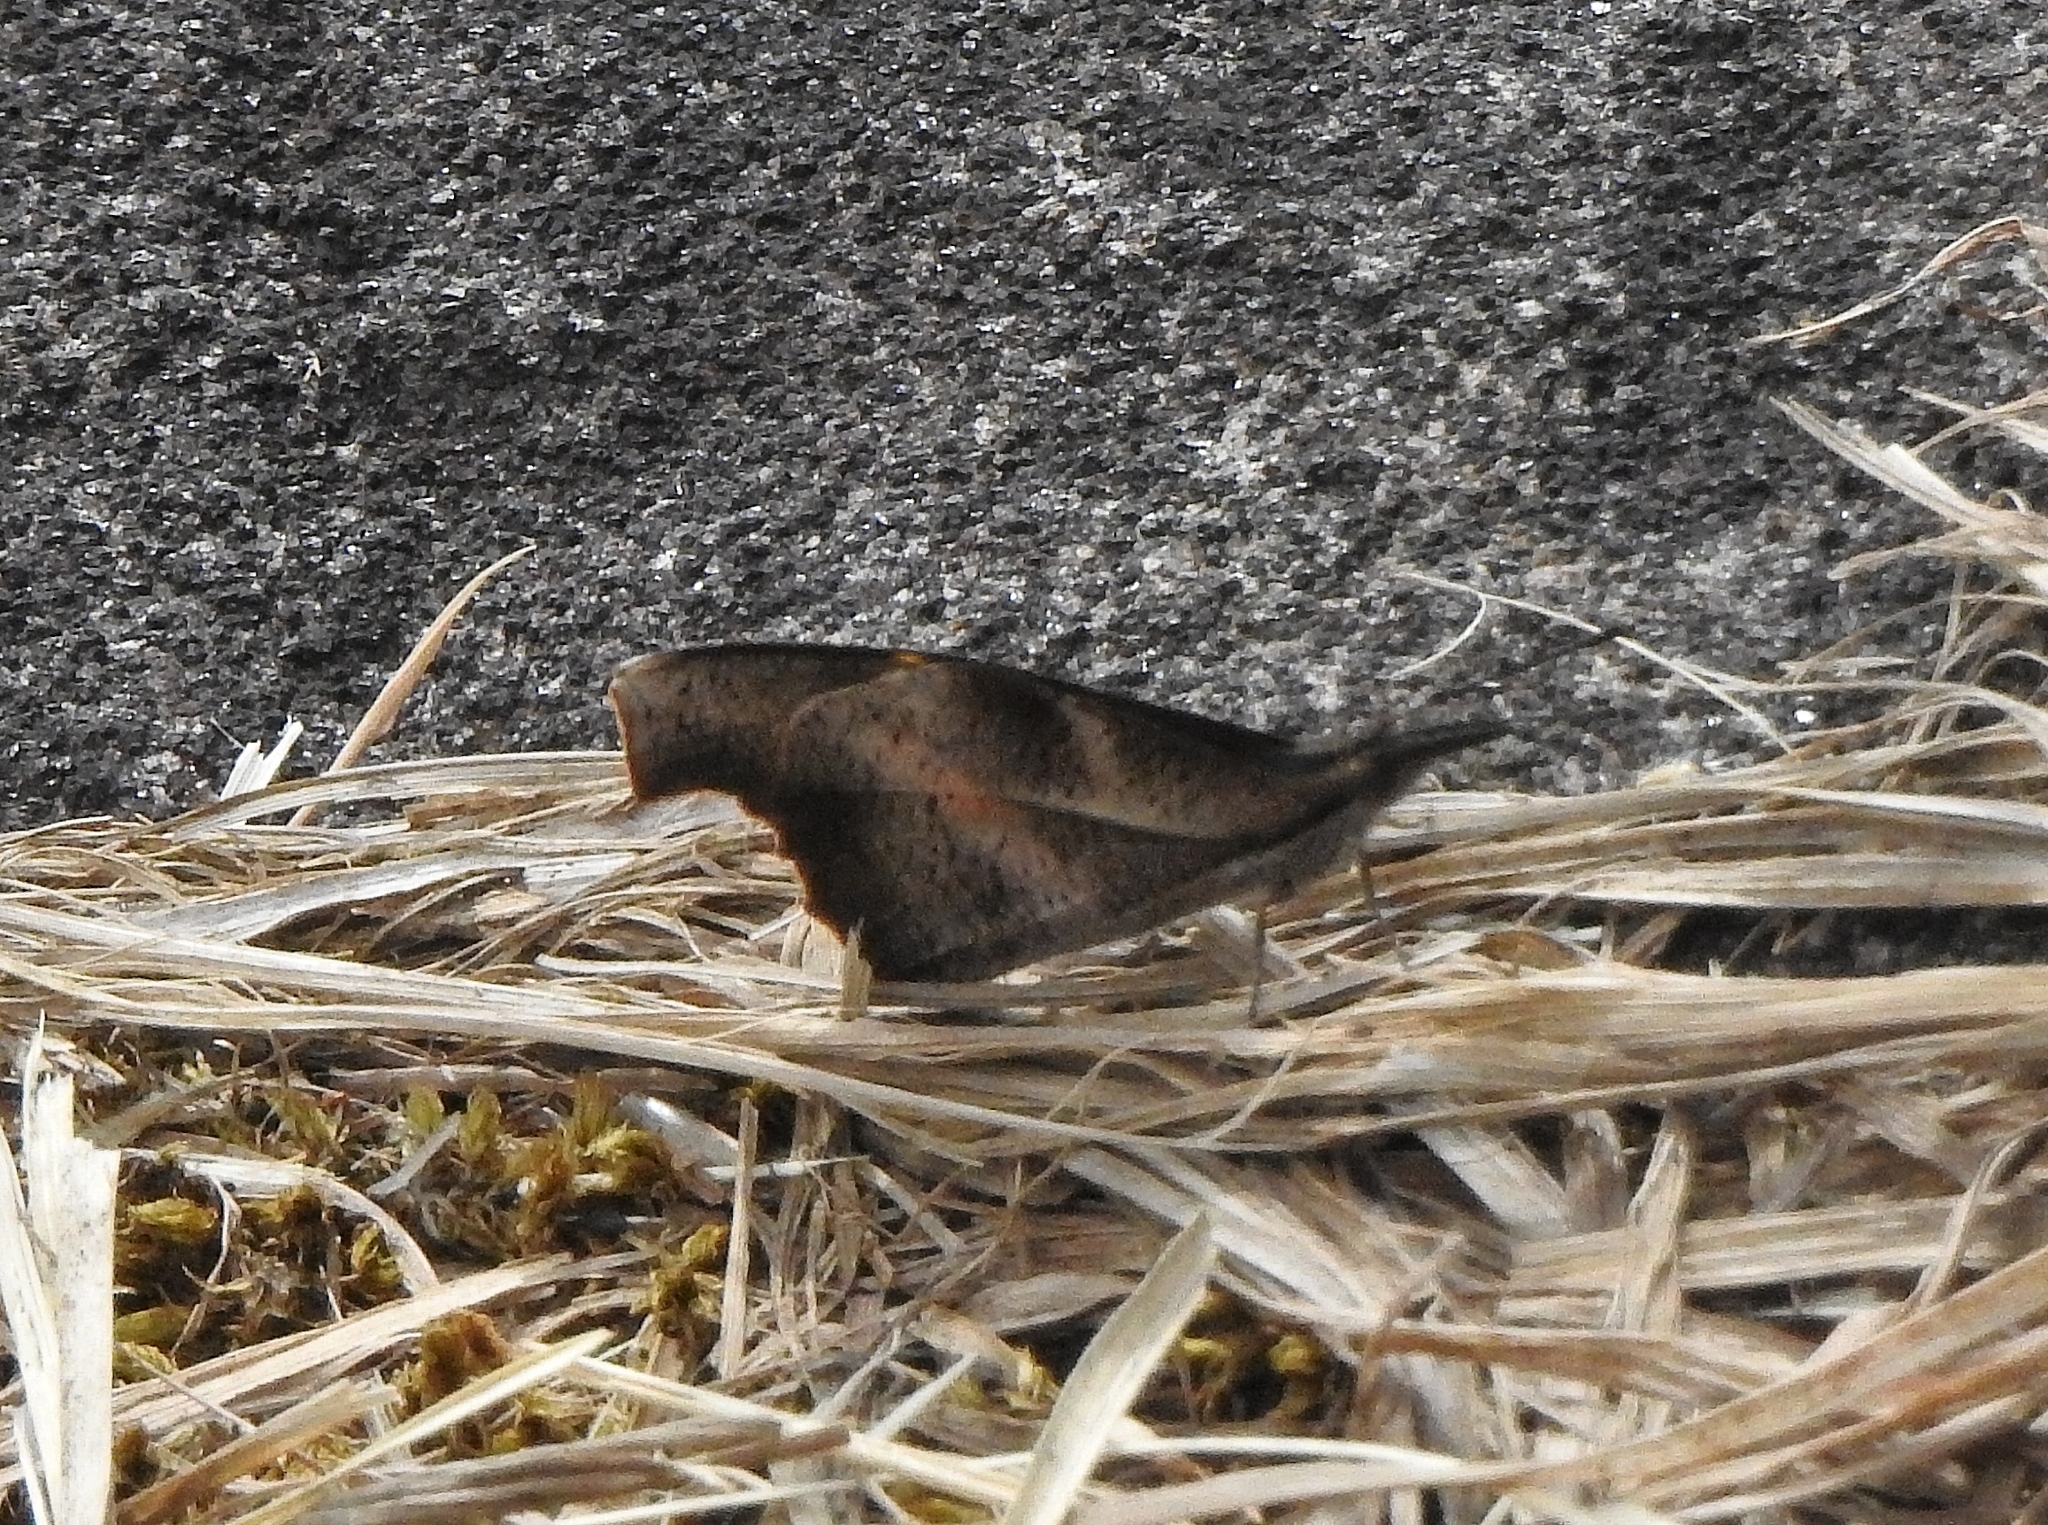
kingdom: Animalia
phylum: Arthropoda
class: Insecta
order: Lepidoptera
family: Nymphalidae
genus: Libythea
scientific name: Libythea myrrha
